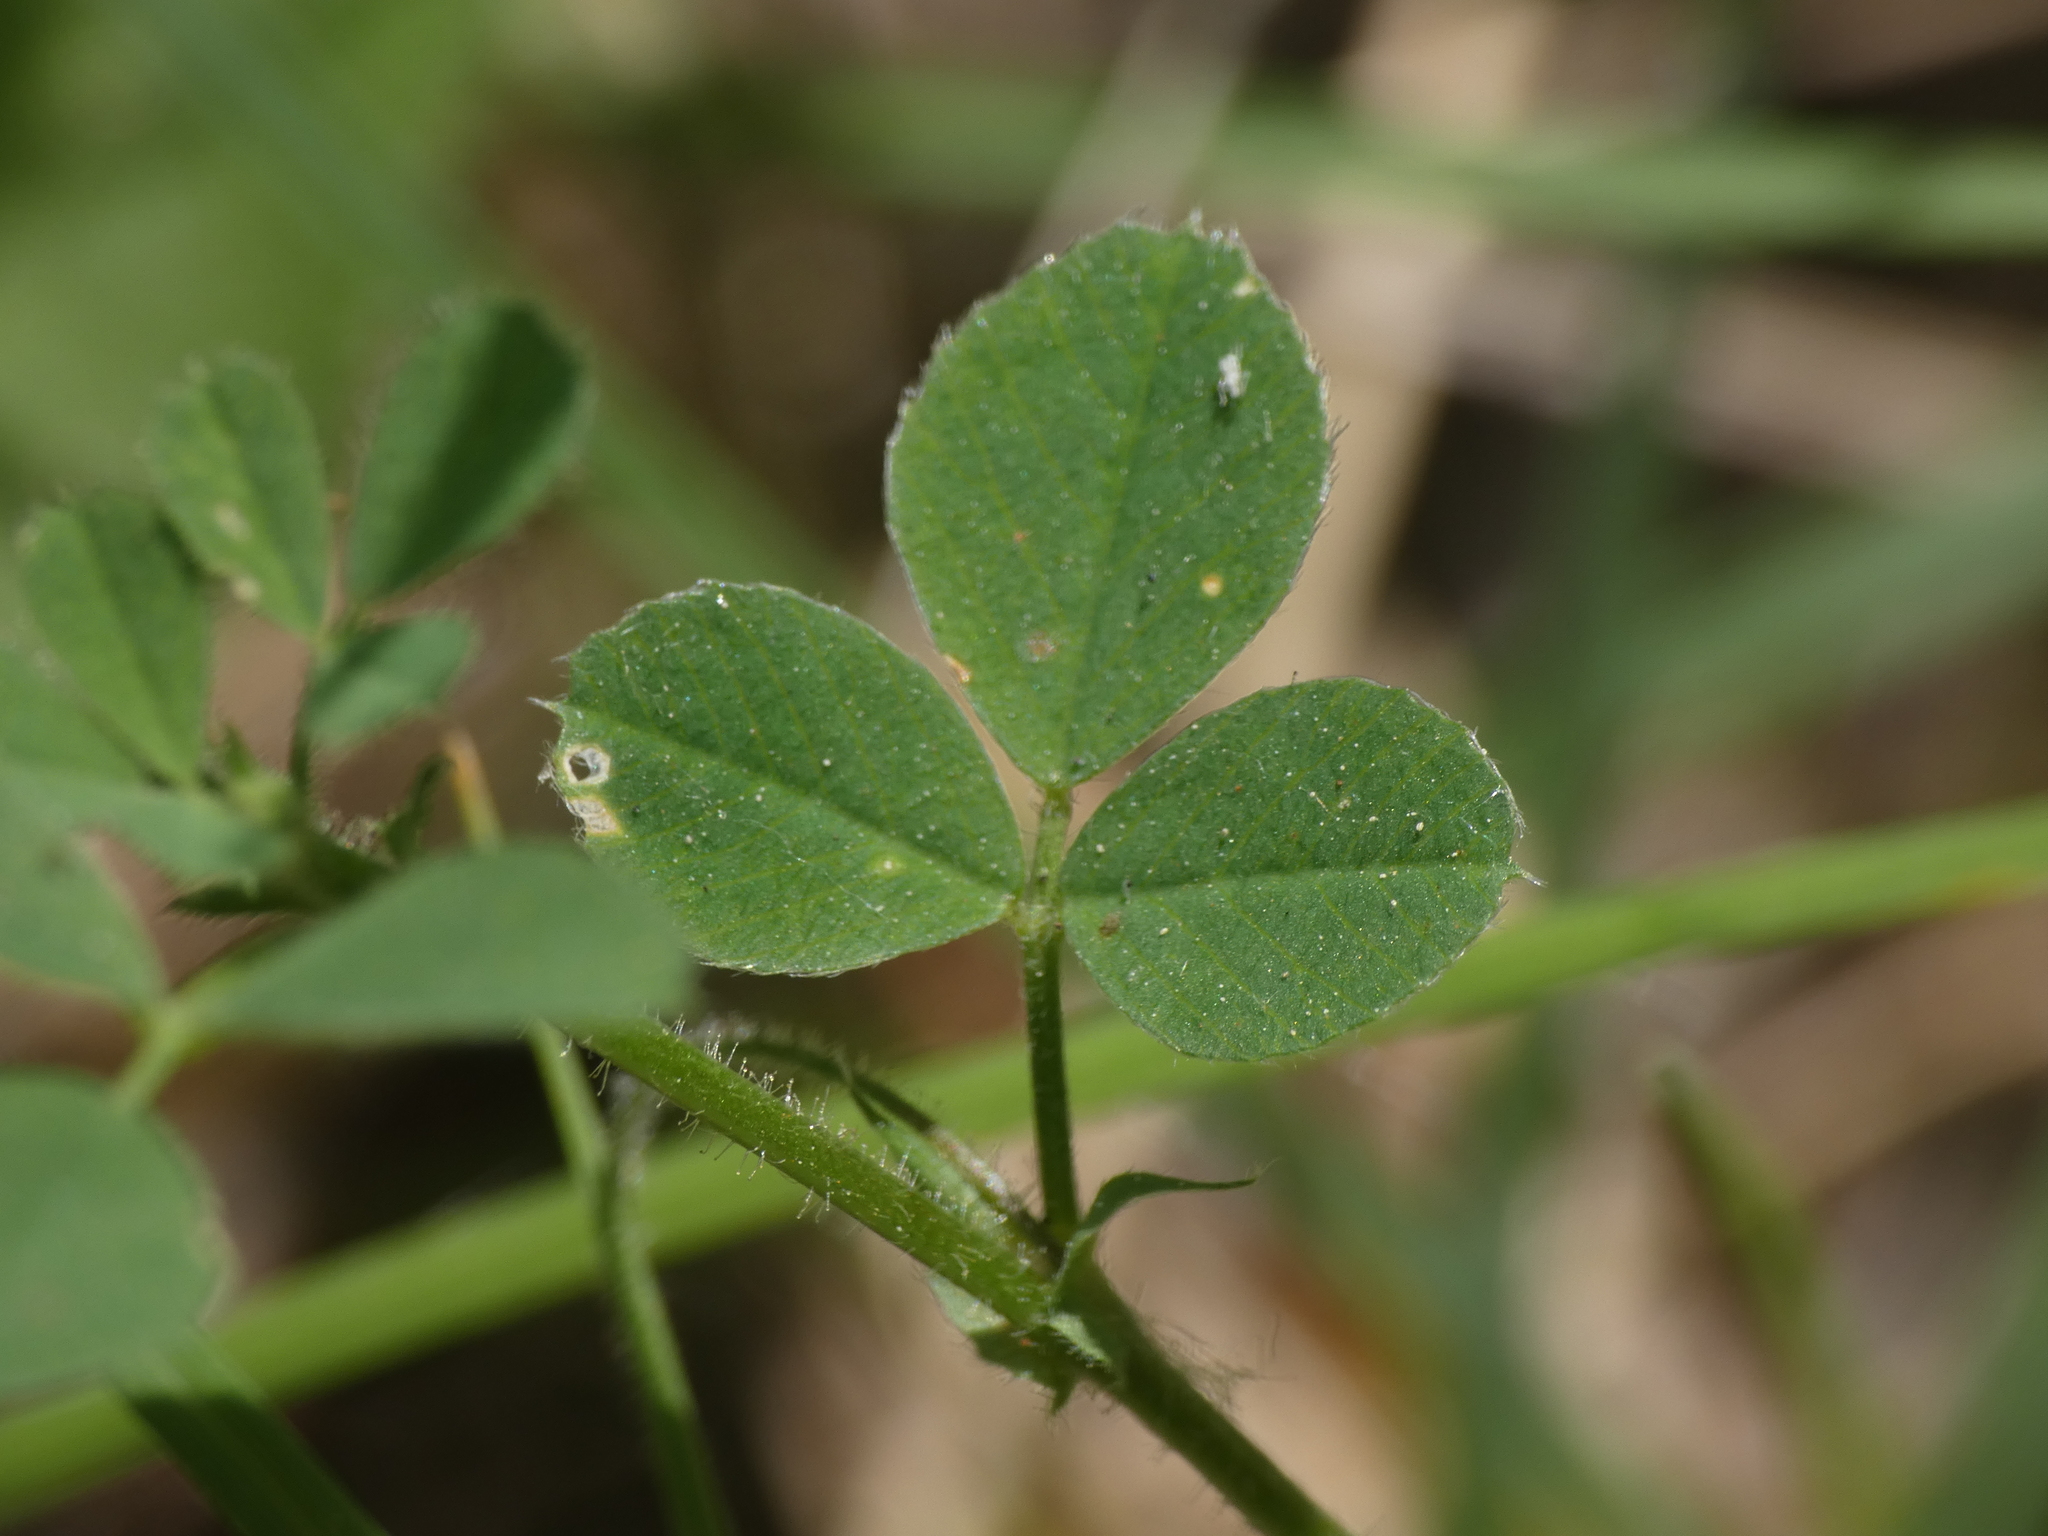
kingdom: Plantae
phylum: Tracheophyta
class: Magnoliopsida
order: Fabales
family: Fabaceae
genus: Medicago
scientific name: Medicago lupulina
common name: Black medick
